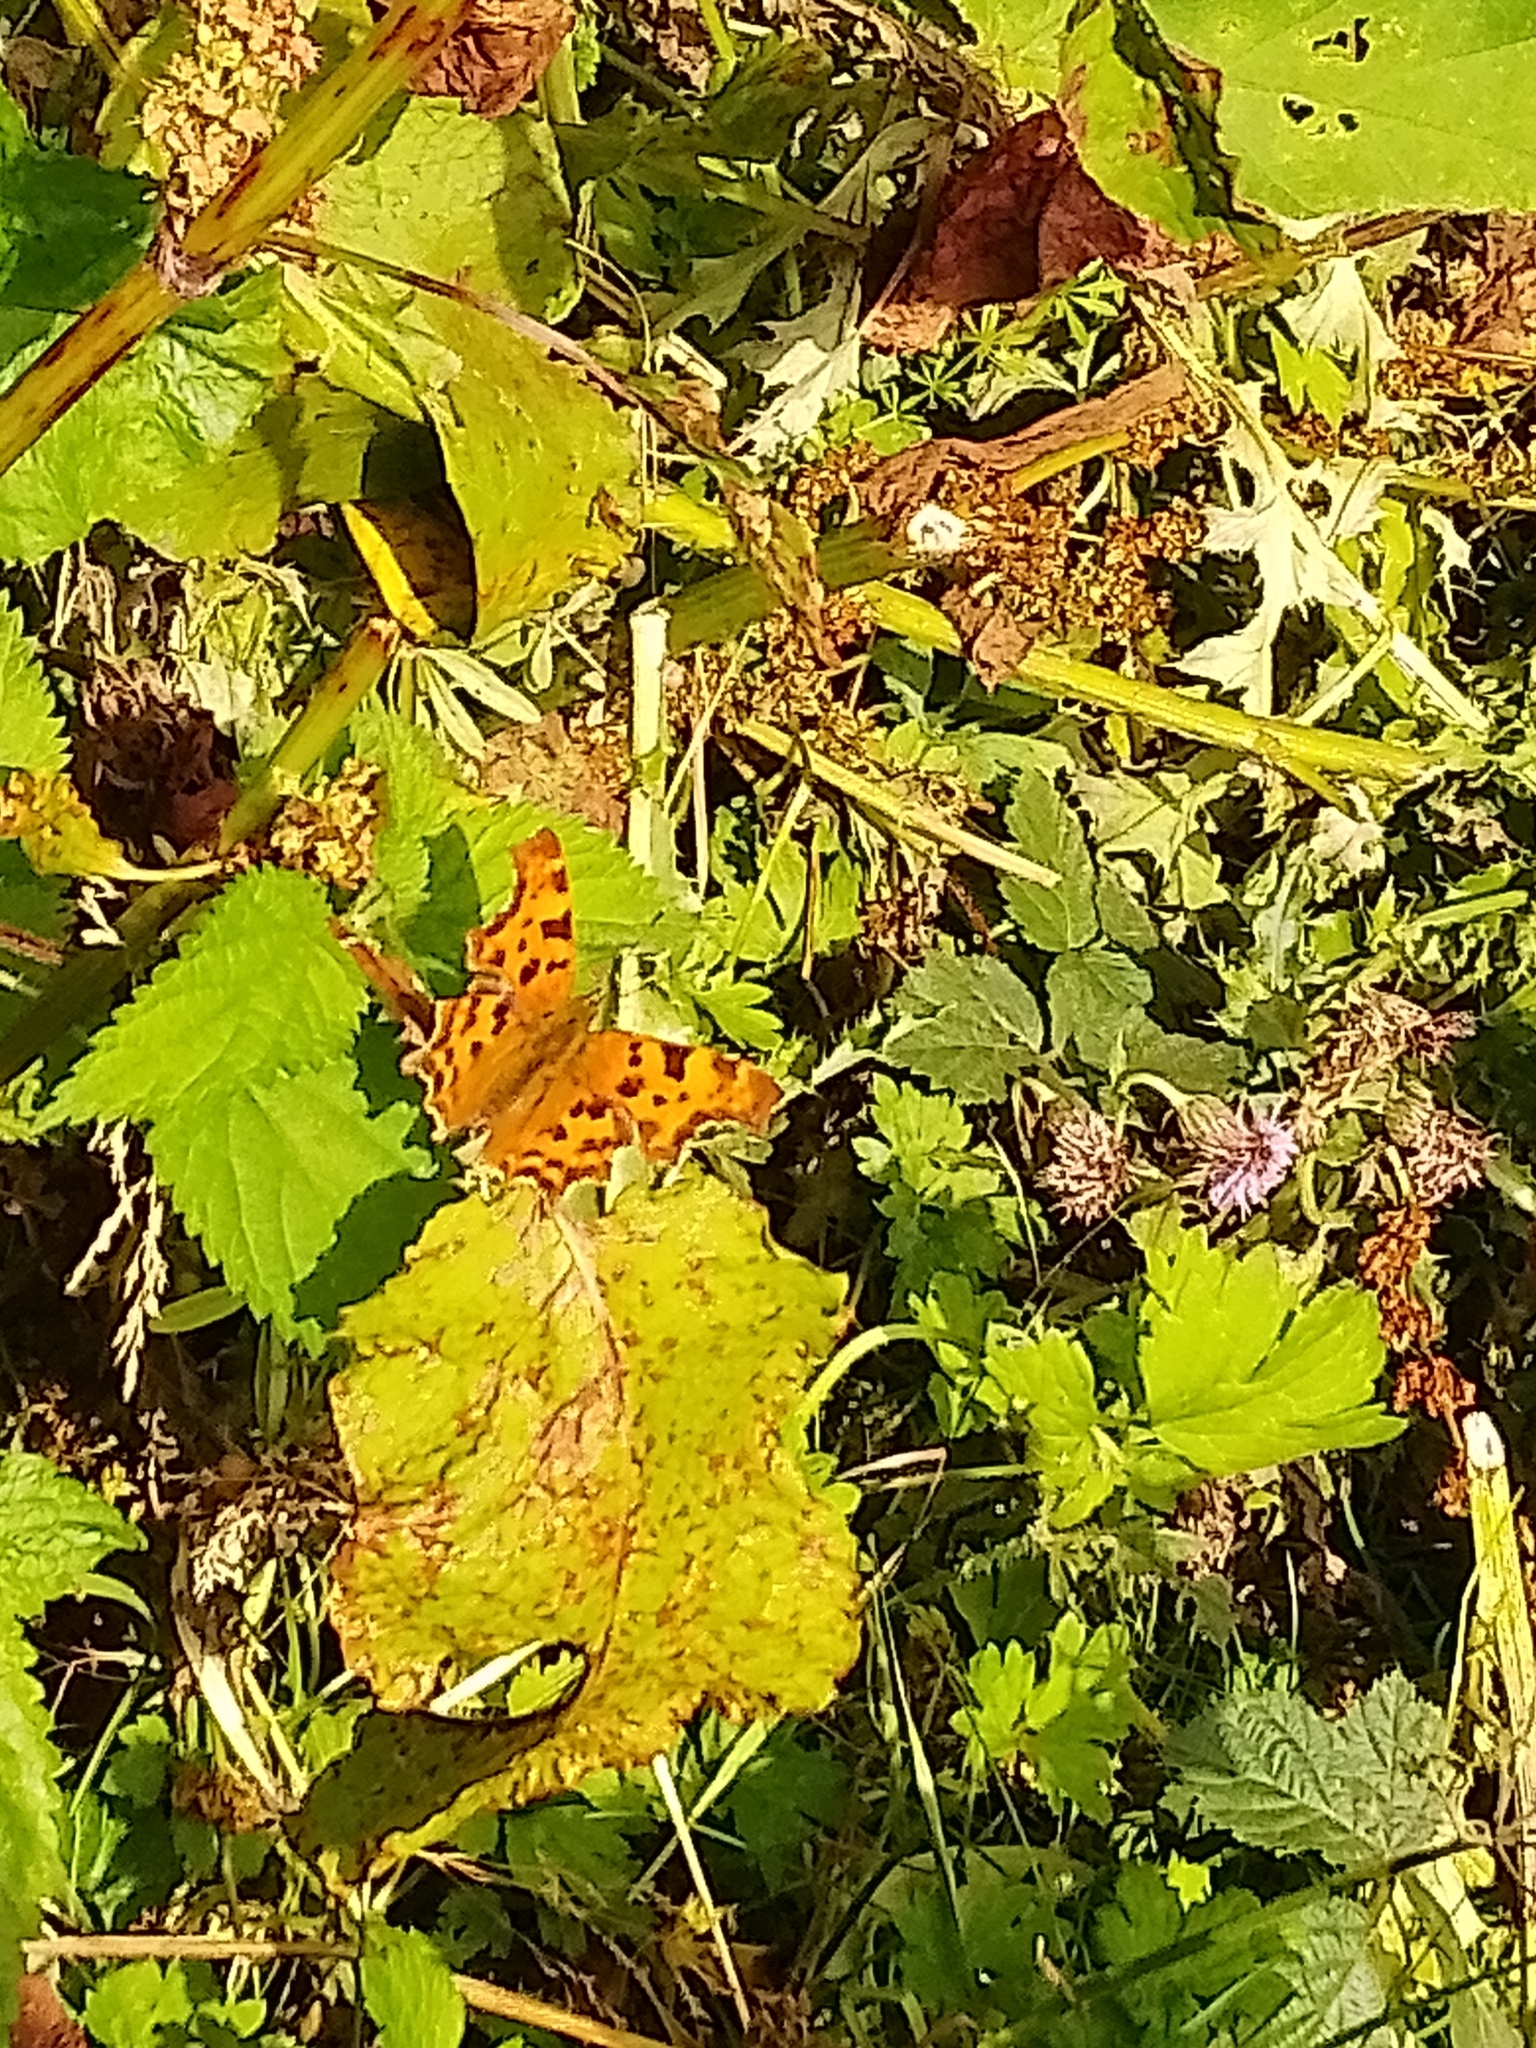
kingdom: Animalia
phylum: Arthropoda
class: Insecta
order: Lepidoptera
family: Nymphalidae
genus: Polygonia
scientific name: Polygonia c-album
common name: Comma
